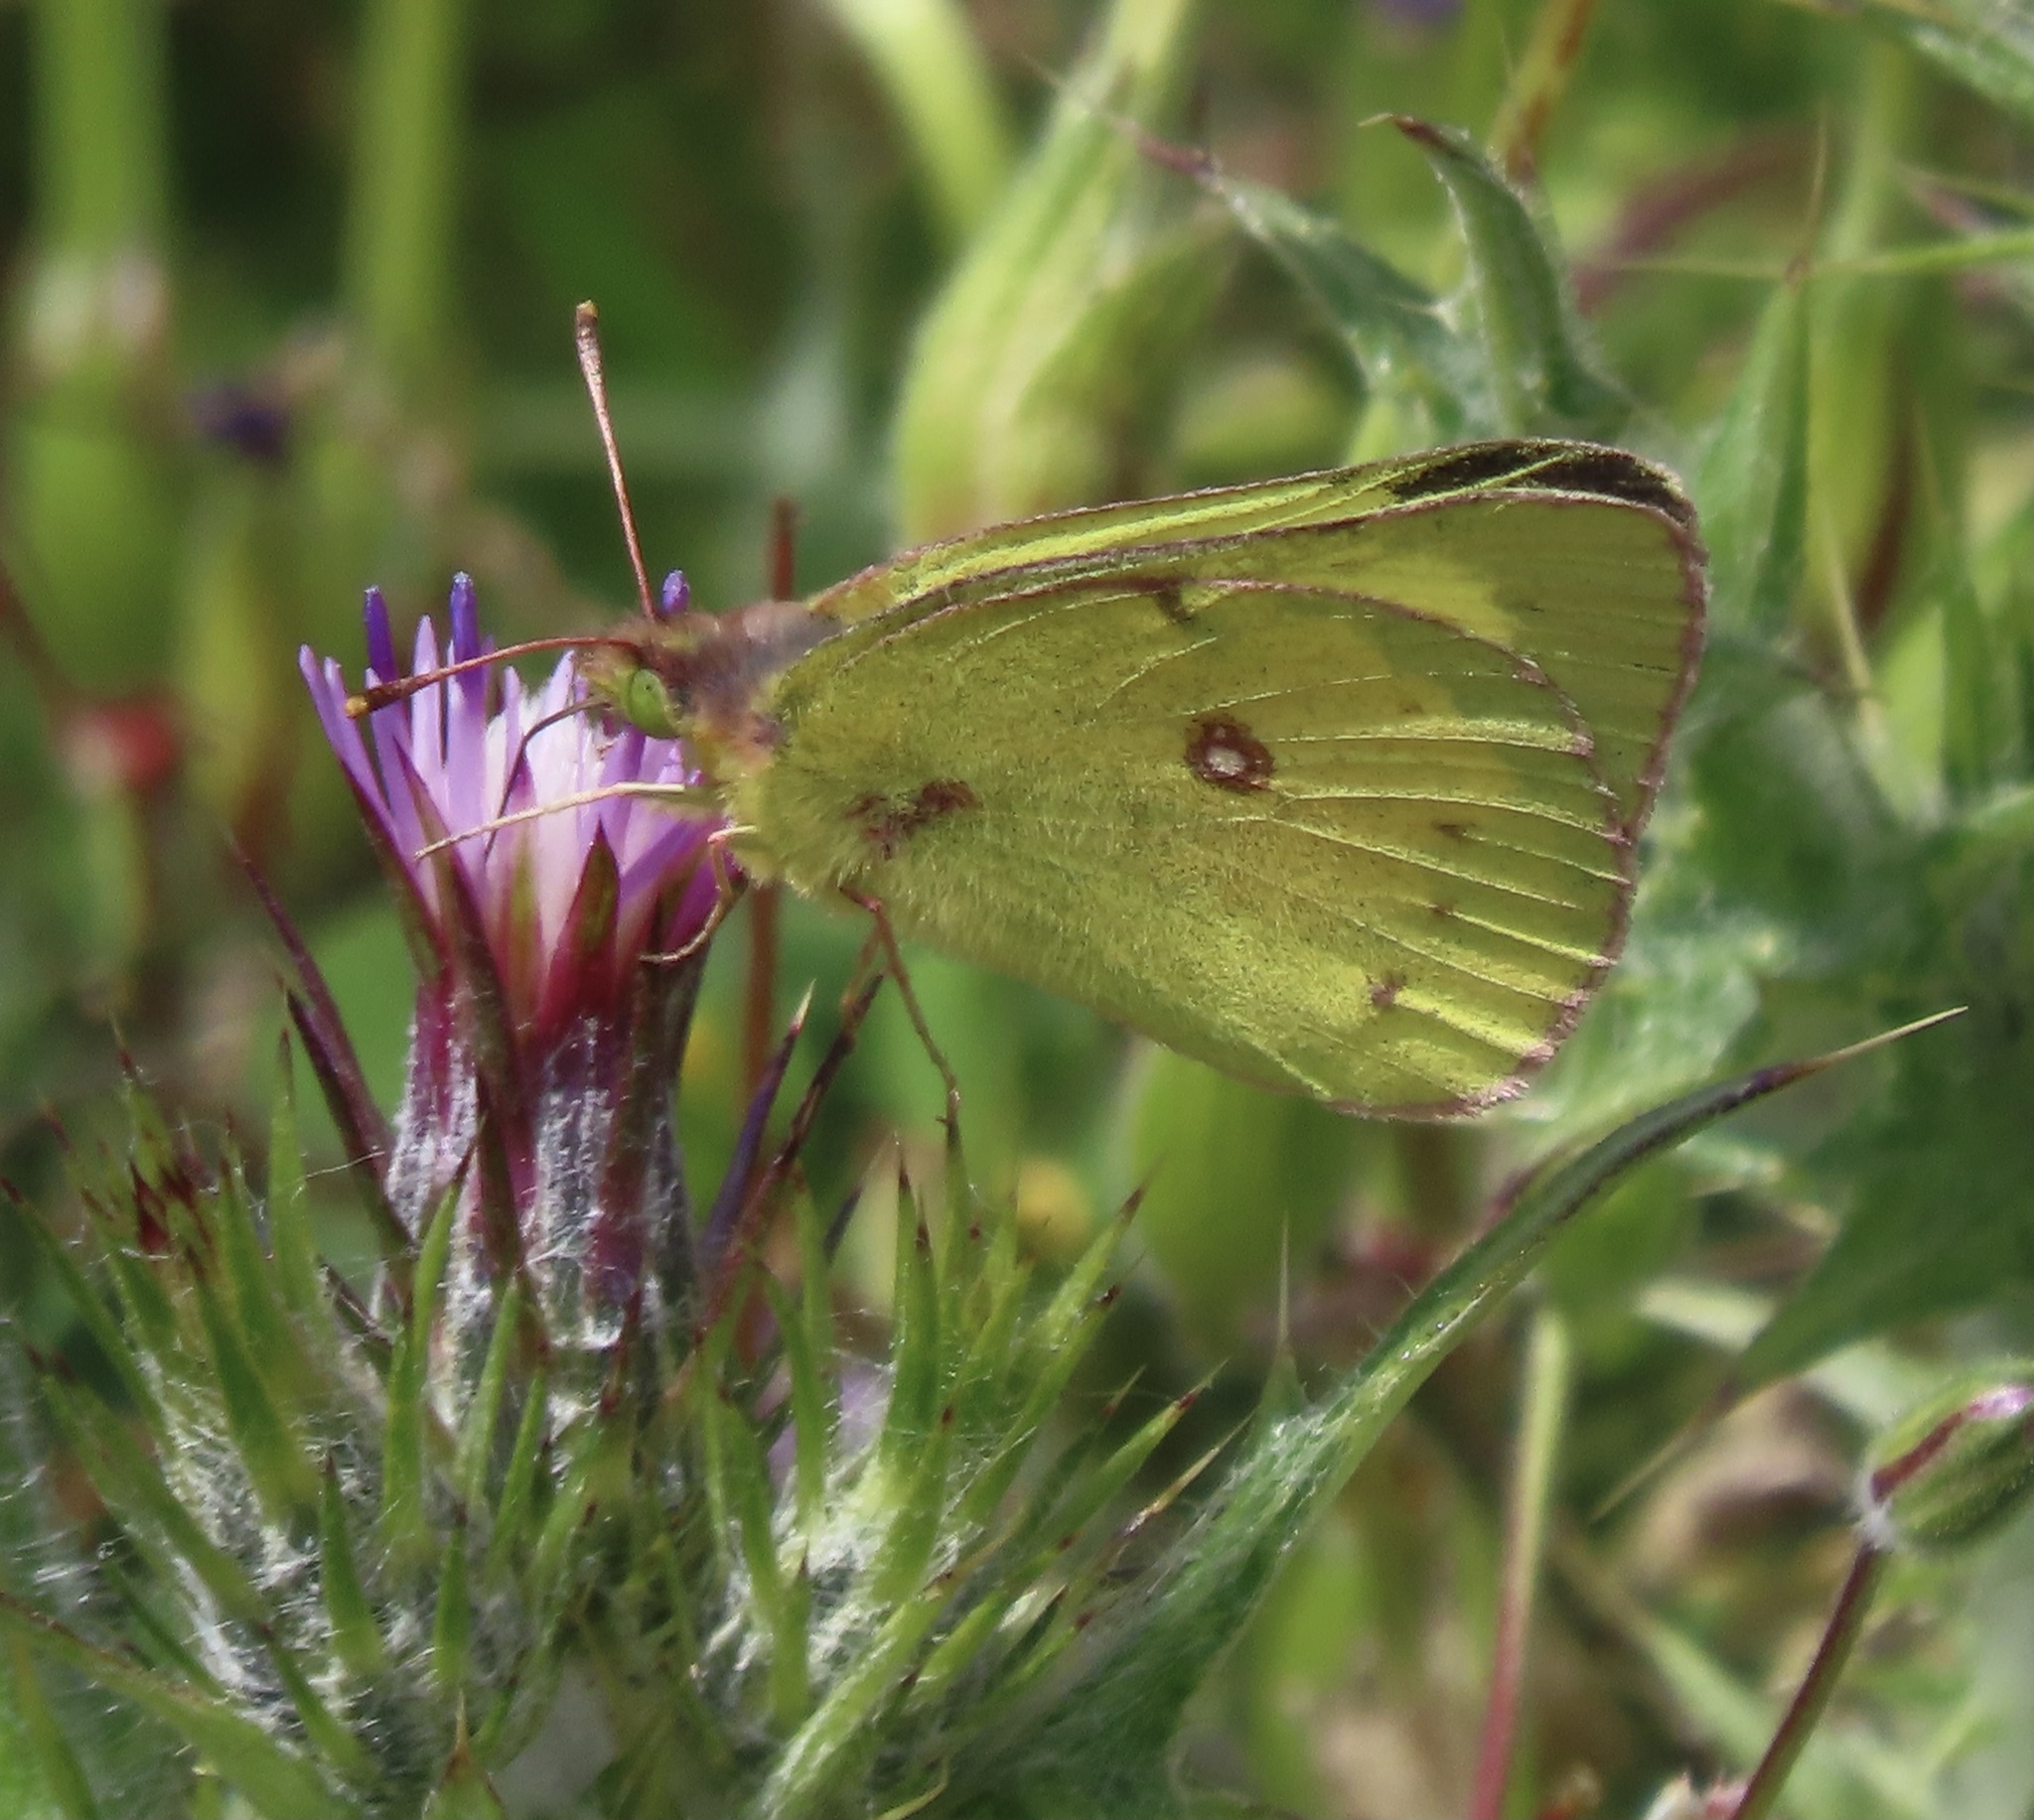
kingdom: Animalia
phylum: Arthropoda
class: Insecta
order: Lepidoptera
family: Pieridae
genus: Colias
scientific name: Colias eurytheme
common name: Alfalfa butterfly
